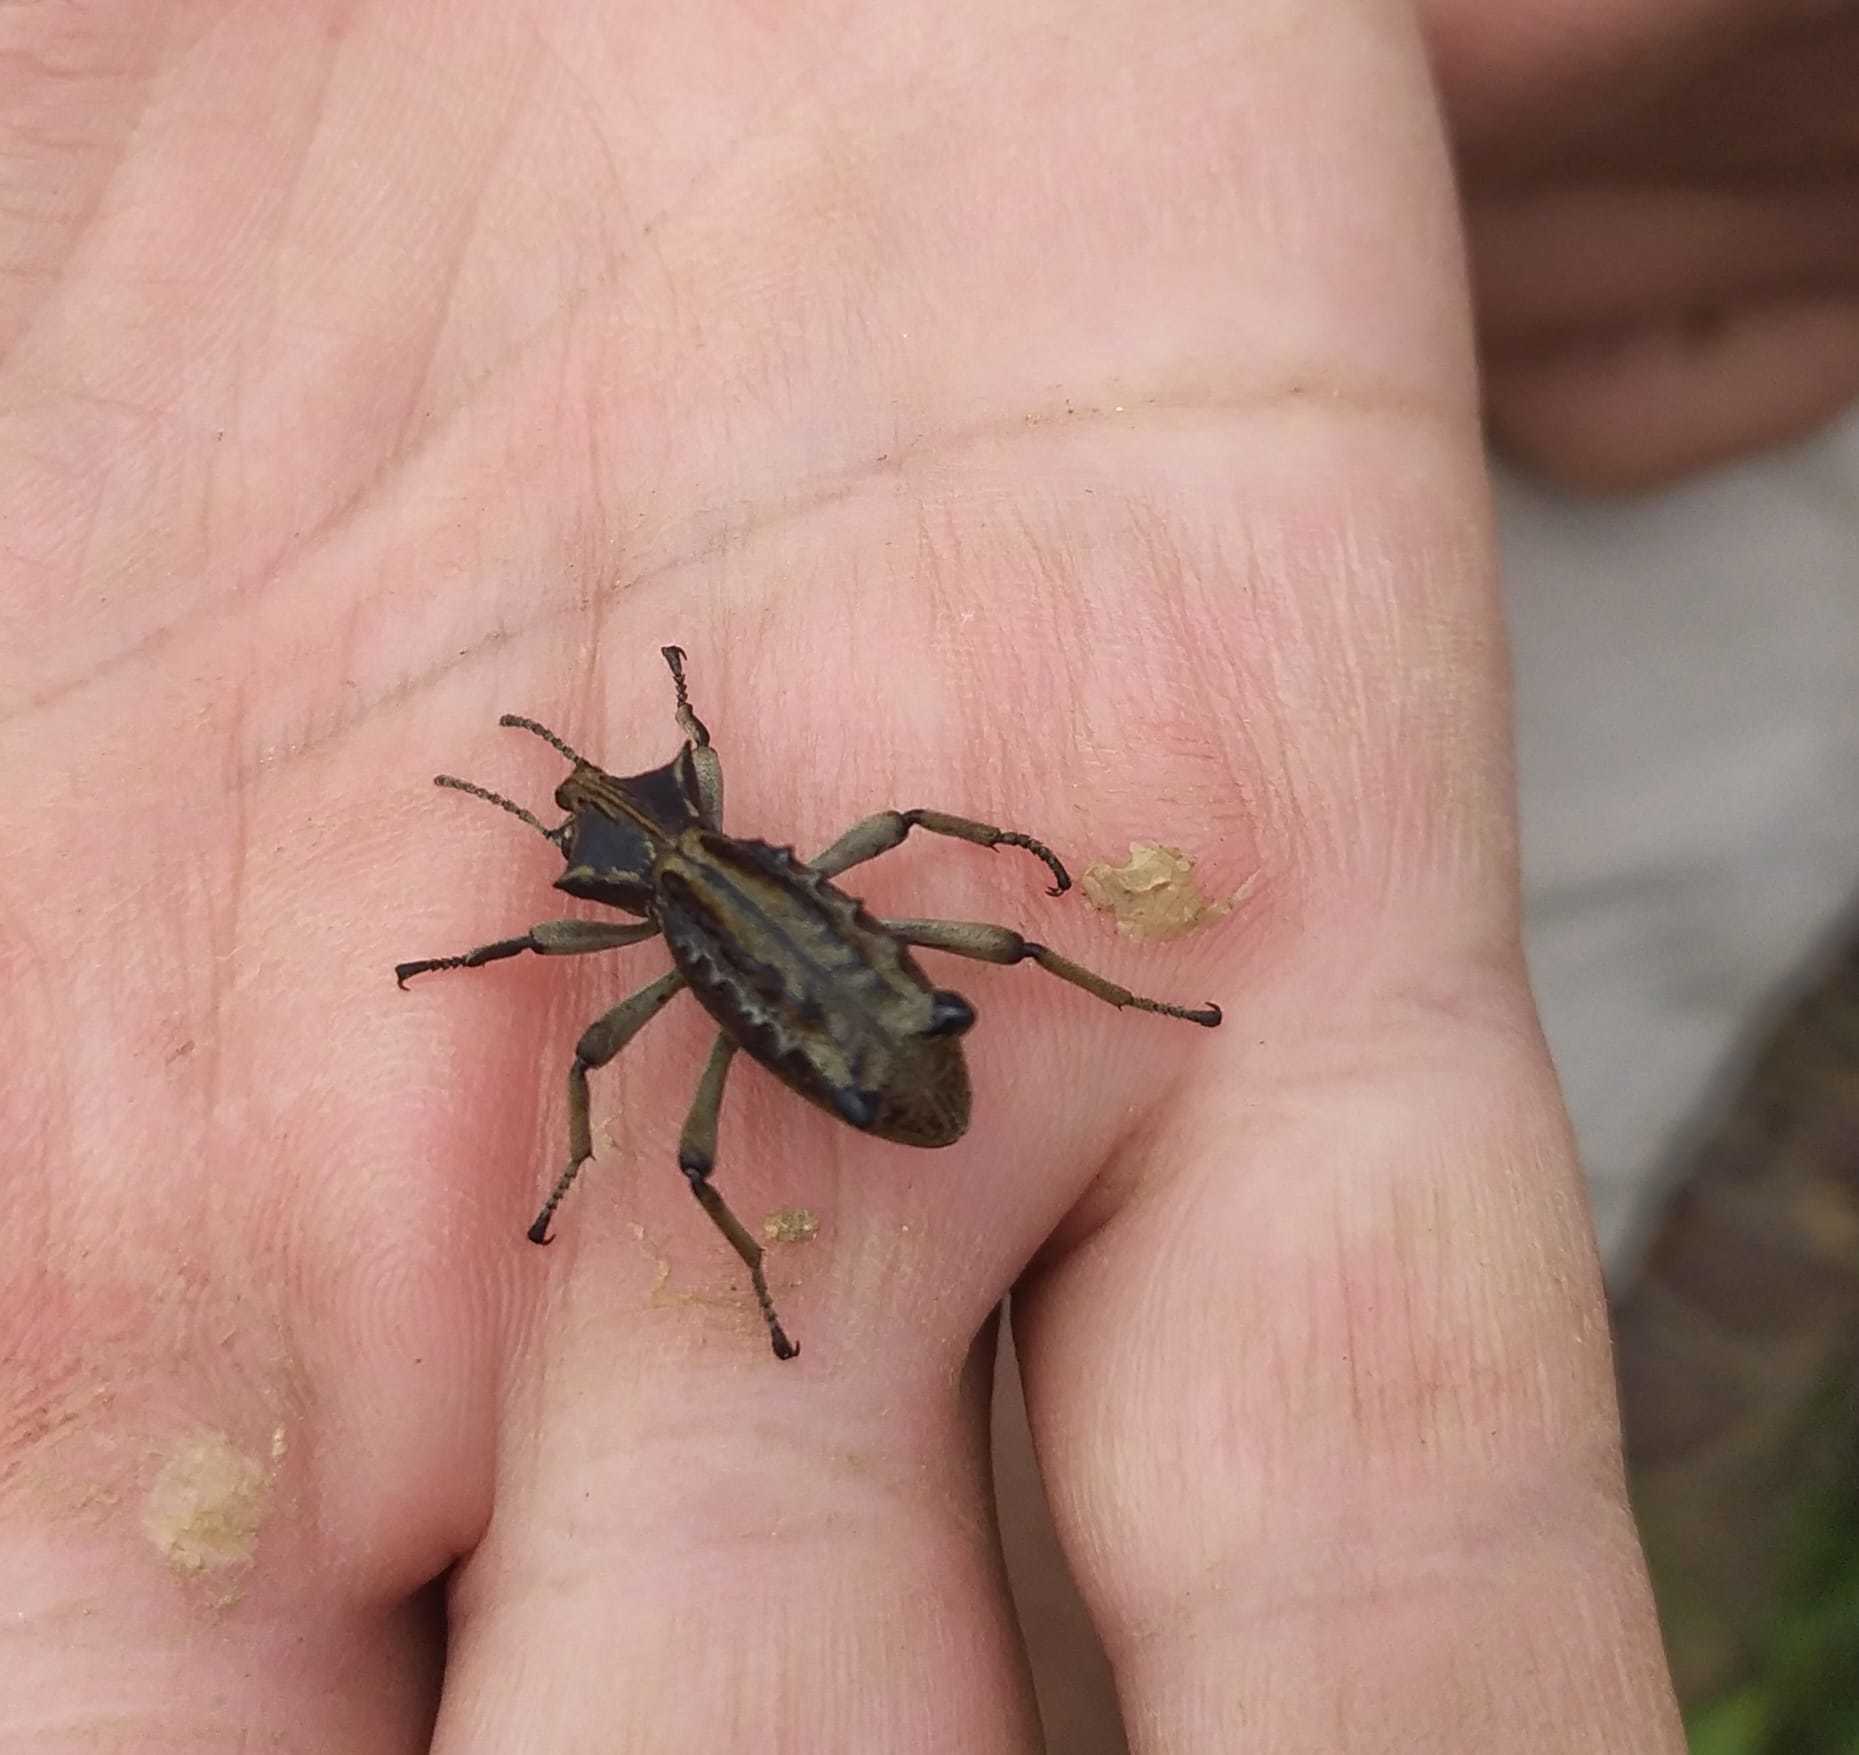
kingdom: Animalia
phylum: Arthropoda
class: Insecta
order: Coleoptera
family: Tenebrionidae
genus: Sepidium
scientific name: Sepidium bidentatum
